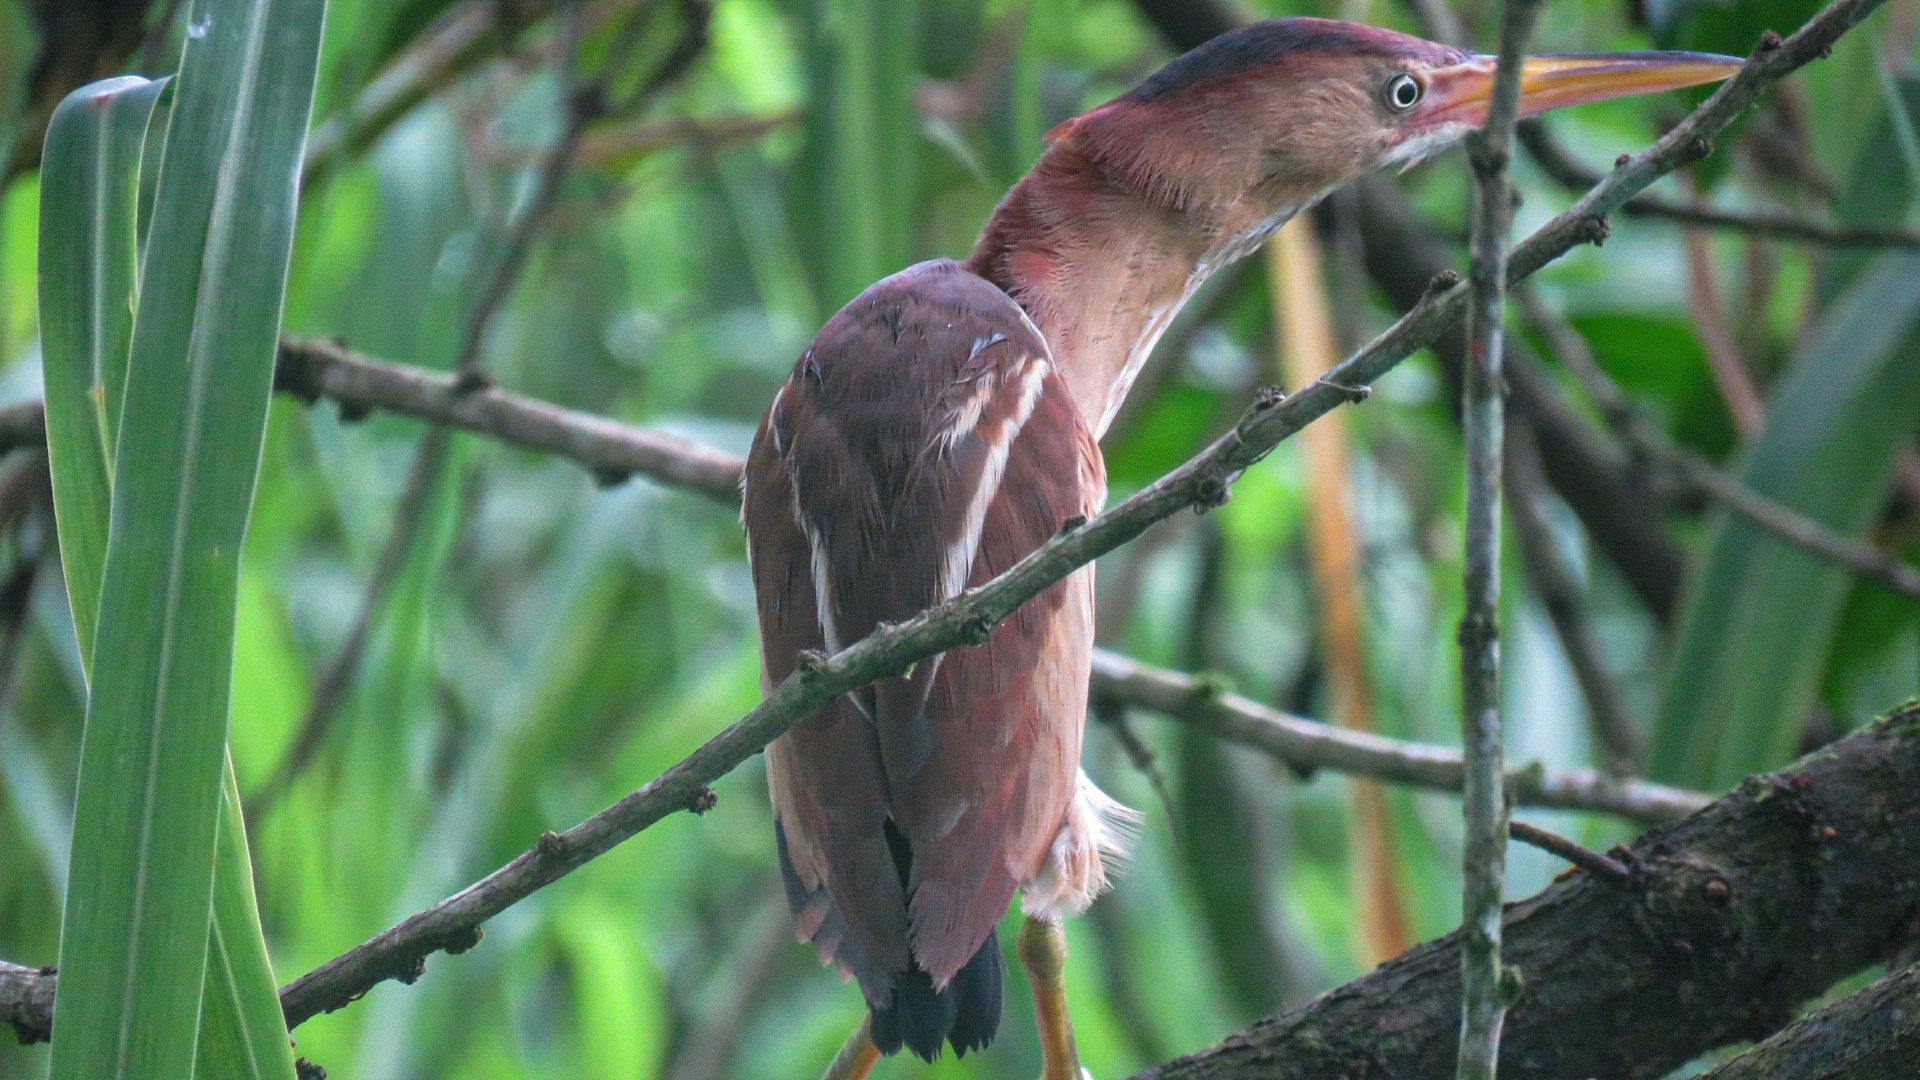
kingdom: Animalia
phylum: Chordata
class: Aves
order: Pelecaniformes
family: Ardeidae
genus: Ixobrychus
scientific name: Ixobrychus exilis
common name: Least bittern
